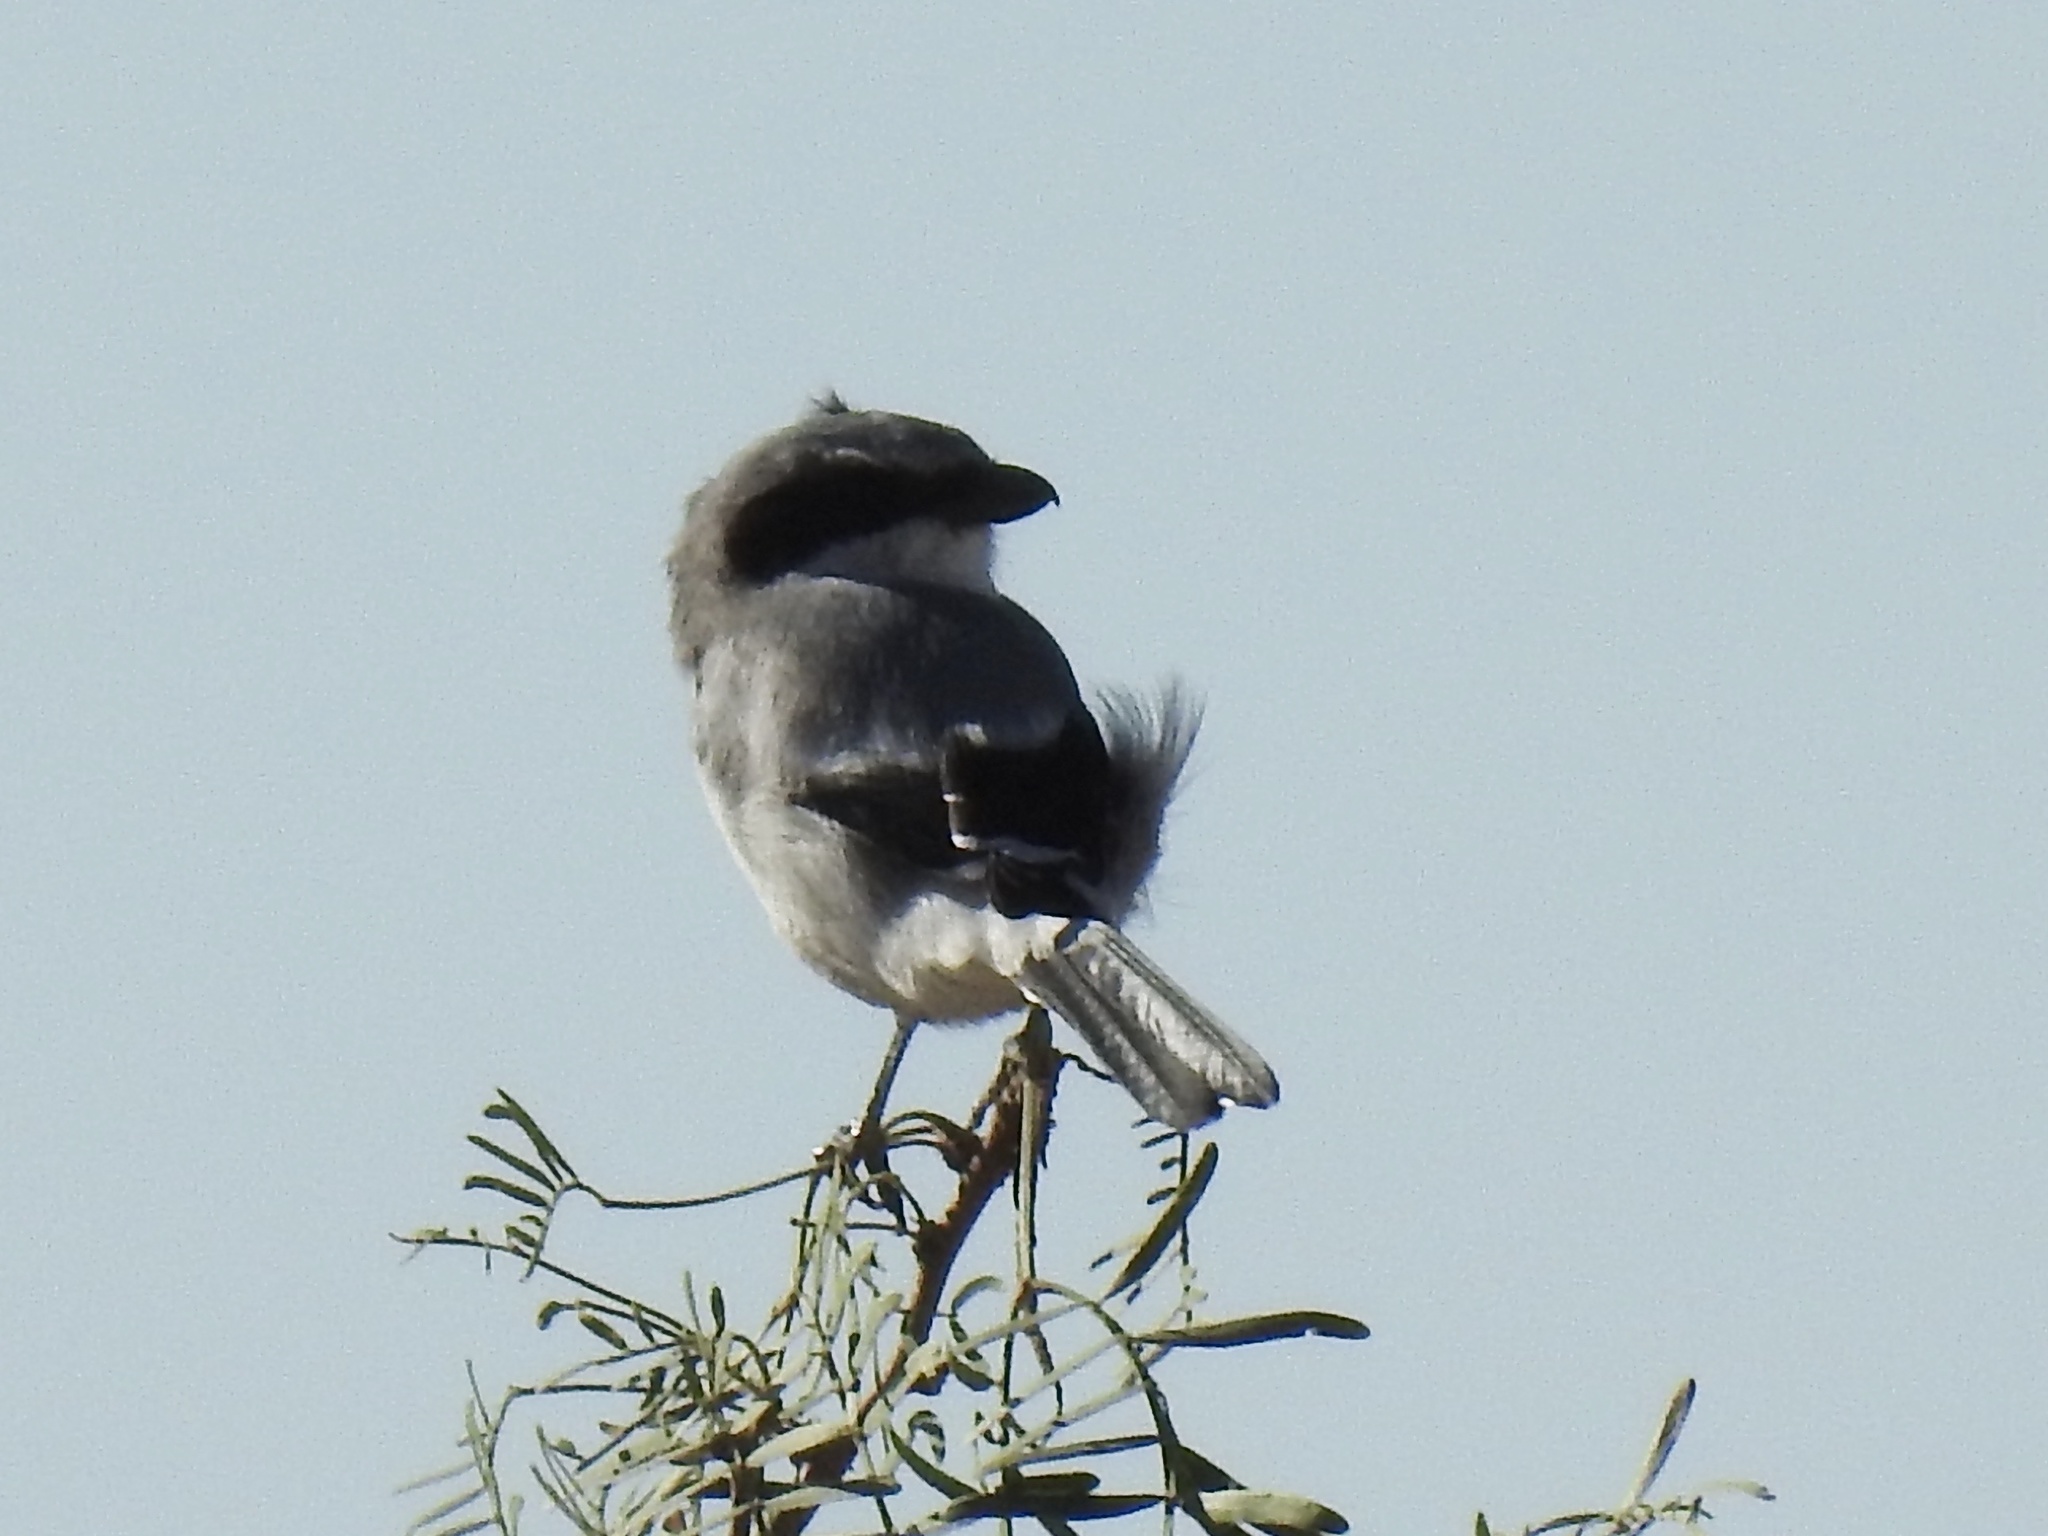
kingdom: Animalia
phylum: Chordata
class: Aves
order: Passeriformes
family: Laniidae
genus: Lanius
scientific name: Lanius ludovicianus
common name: Loggerhead shrike
